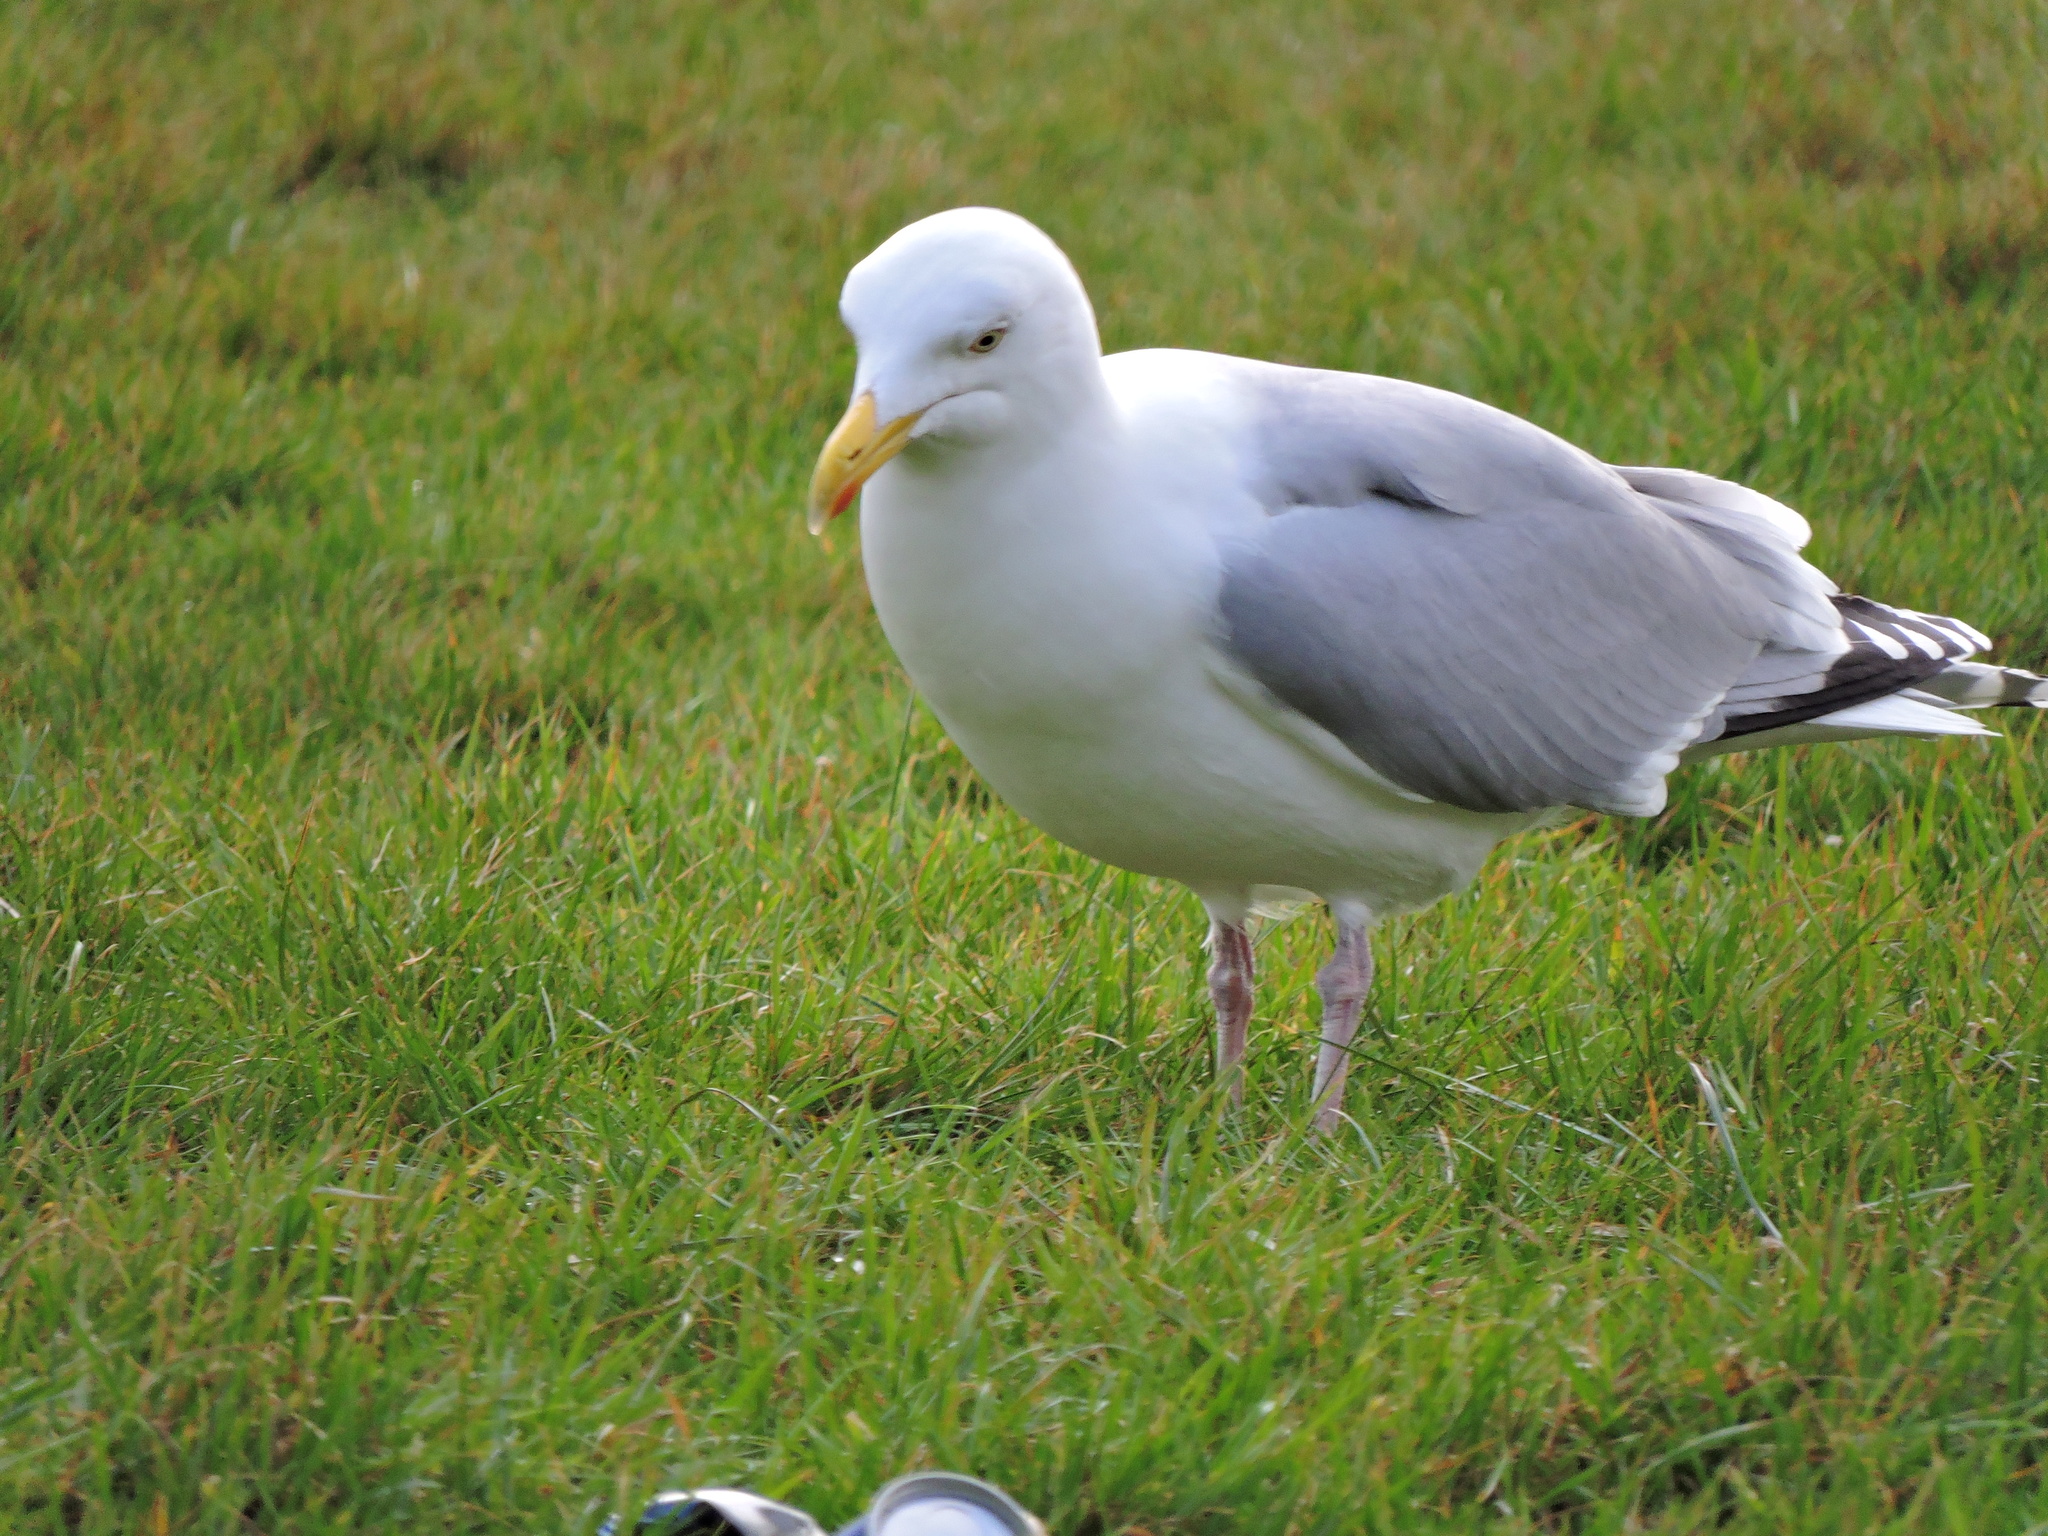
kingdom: Animalia
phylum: Chordata
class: Aves
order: Charadriiformes
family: Laridae
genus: Larus
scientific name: Larus argentatus
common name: Herring gull
